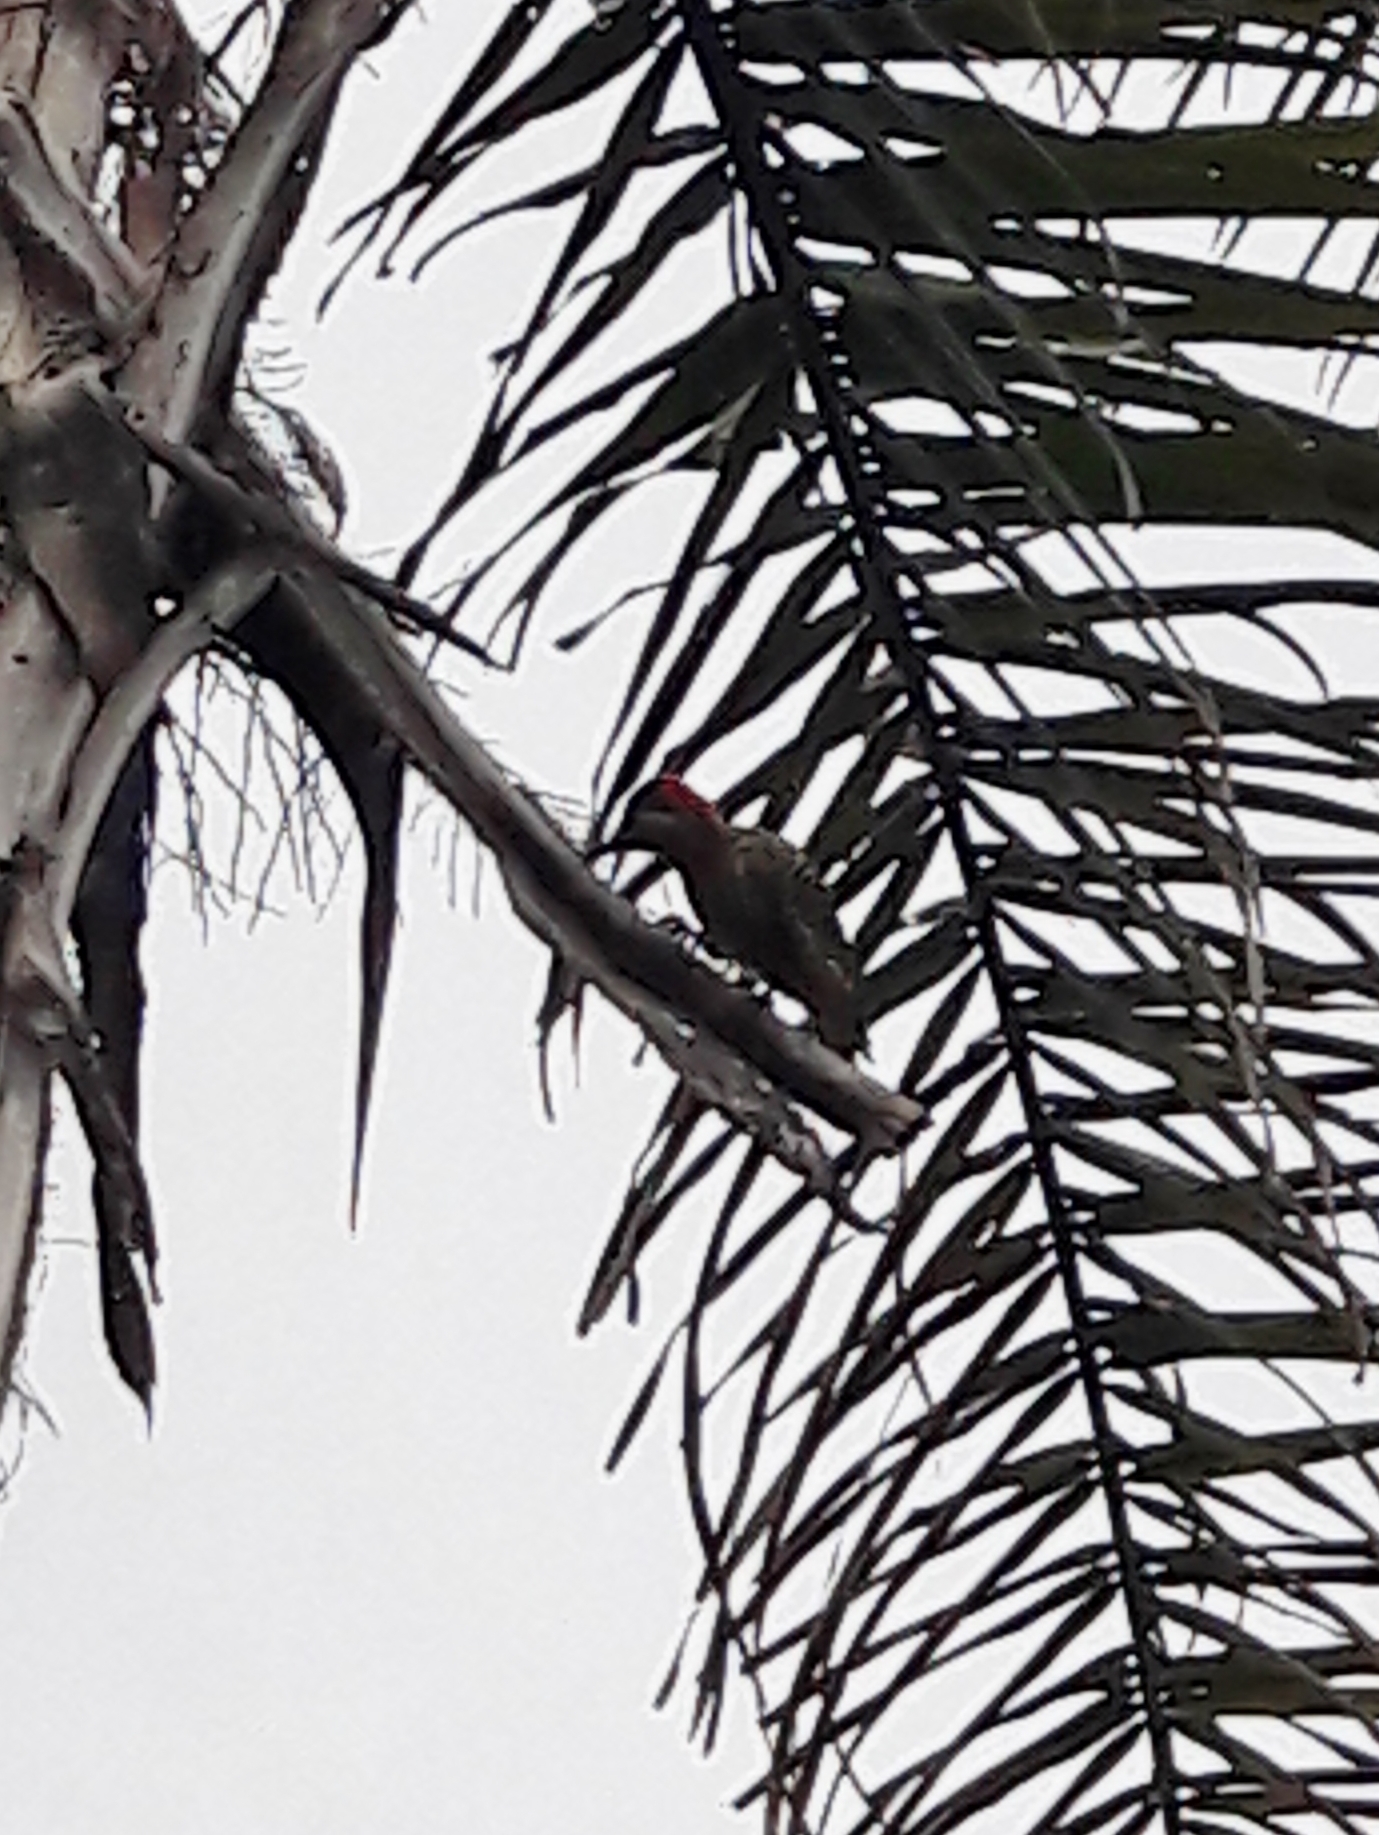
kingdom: Animalia
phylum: Chordata
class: Aves
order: Piciformes
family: Picidae
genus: Colaptes
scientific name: Colaptes melanochloros
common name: Green-barred woodpecker
